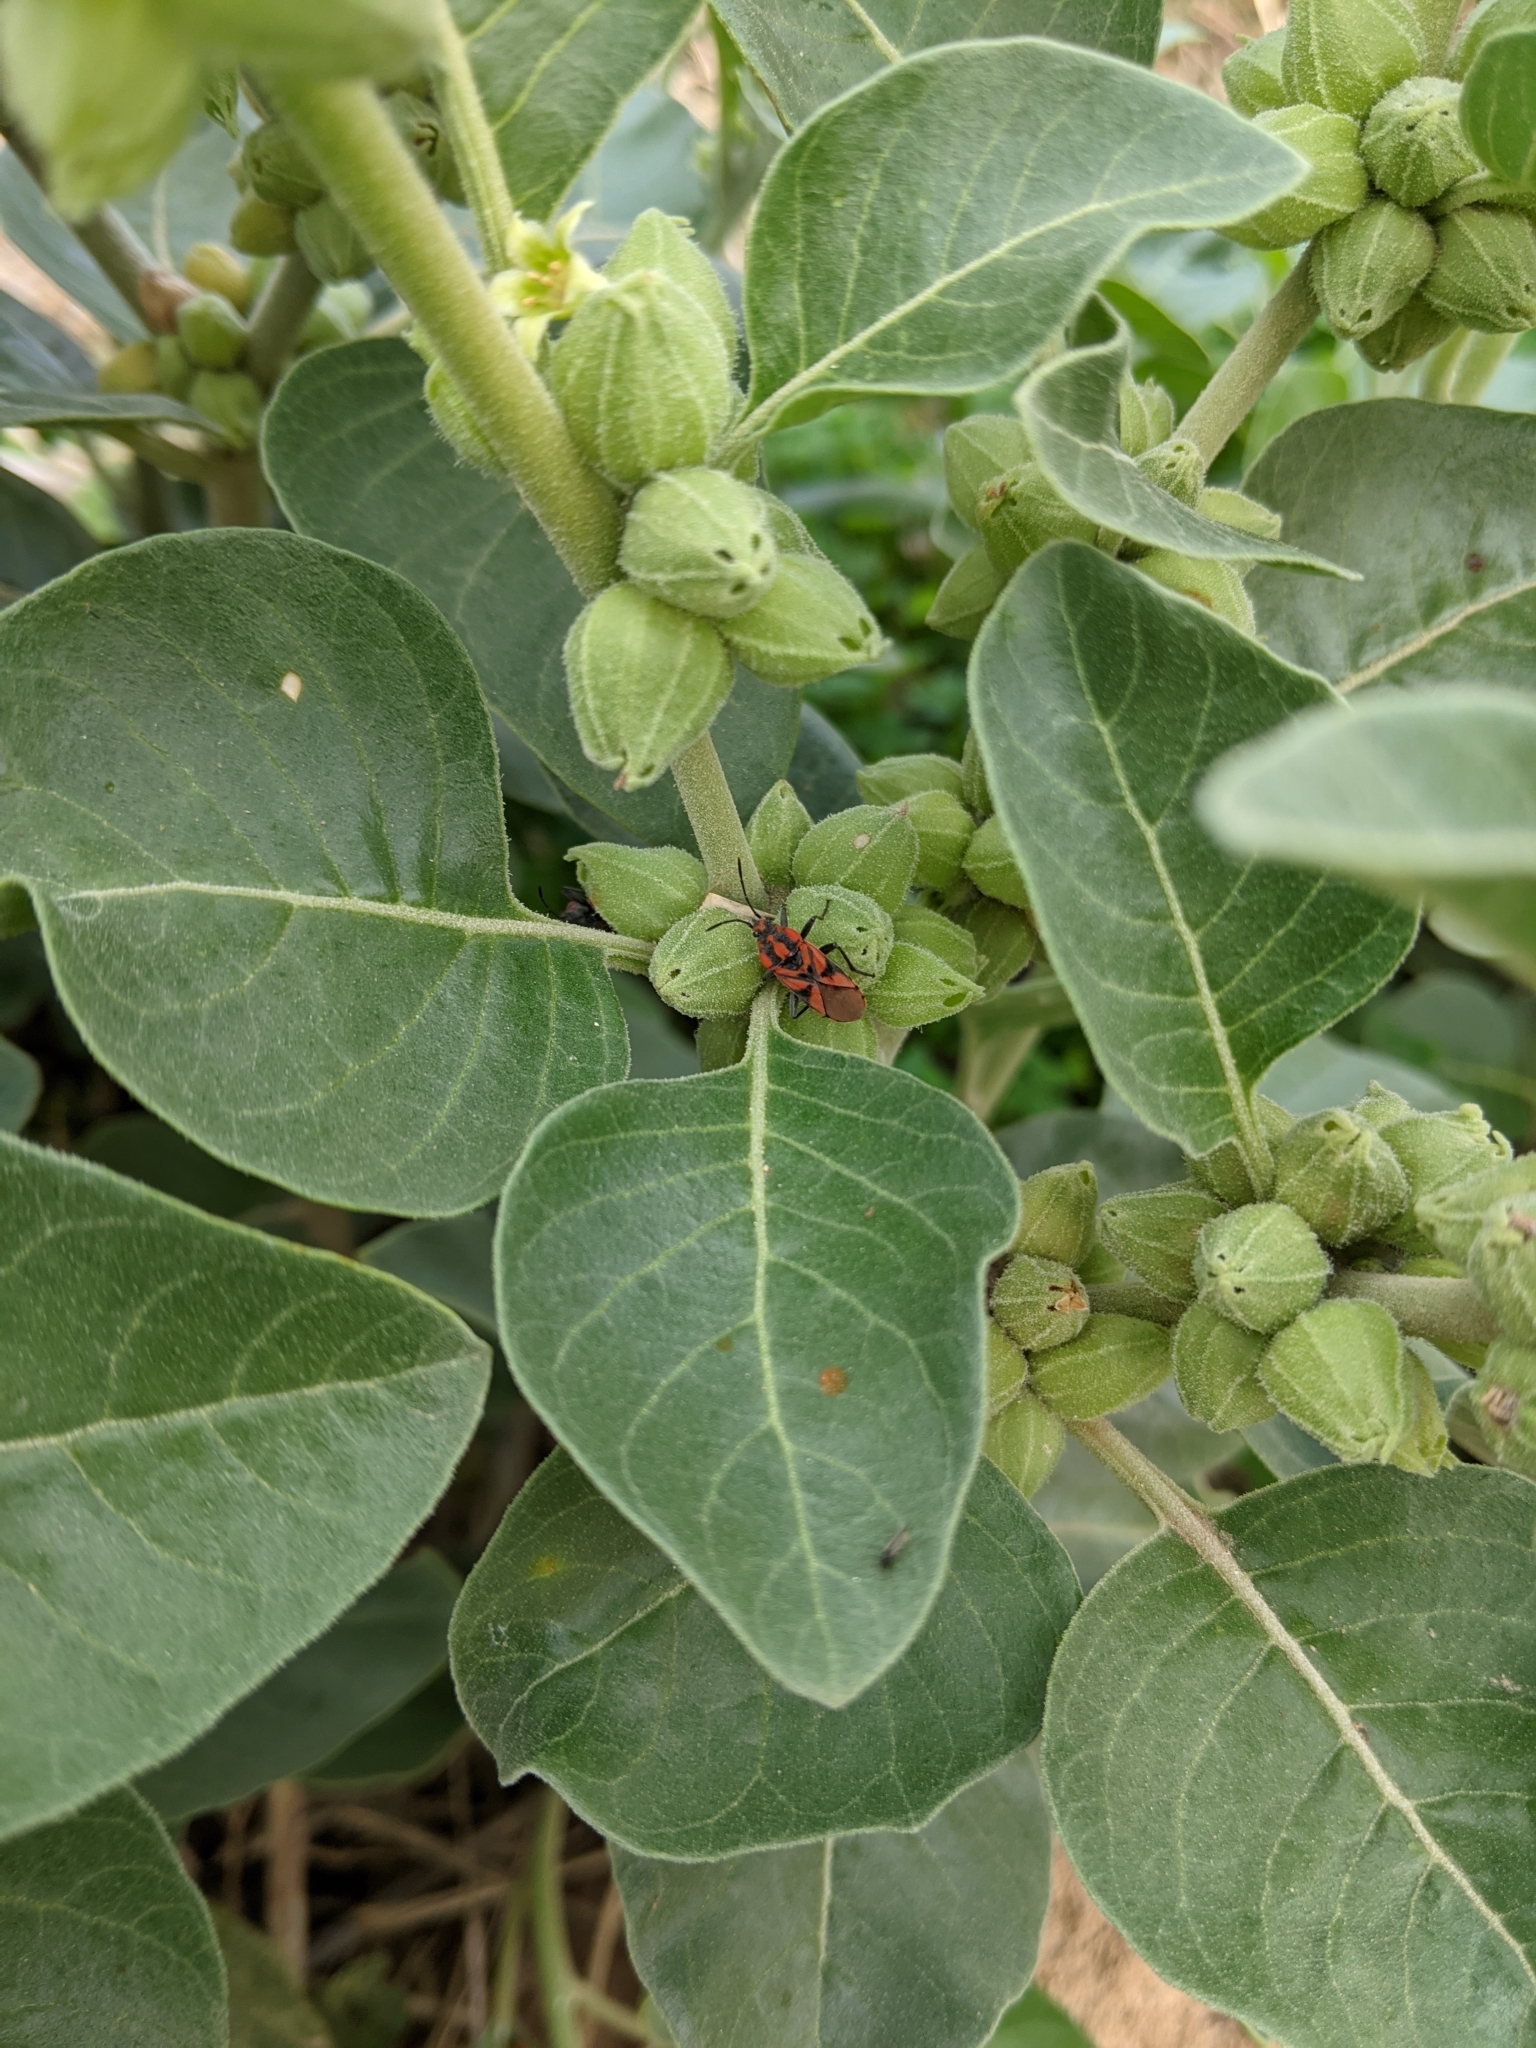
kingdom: Animalia
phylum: Arthropoda
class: Insecta
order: Hemiptera
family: Lygaeidae
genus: Spilostethus
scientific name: Spilostethus furcula
